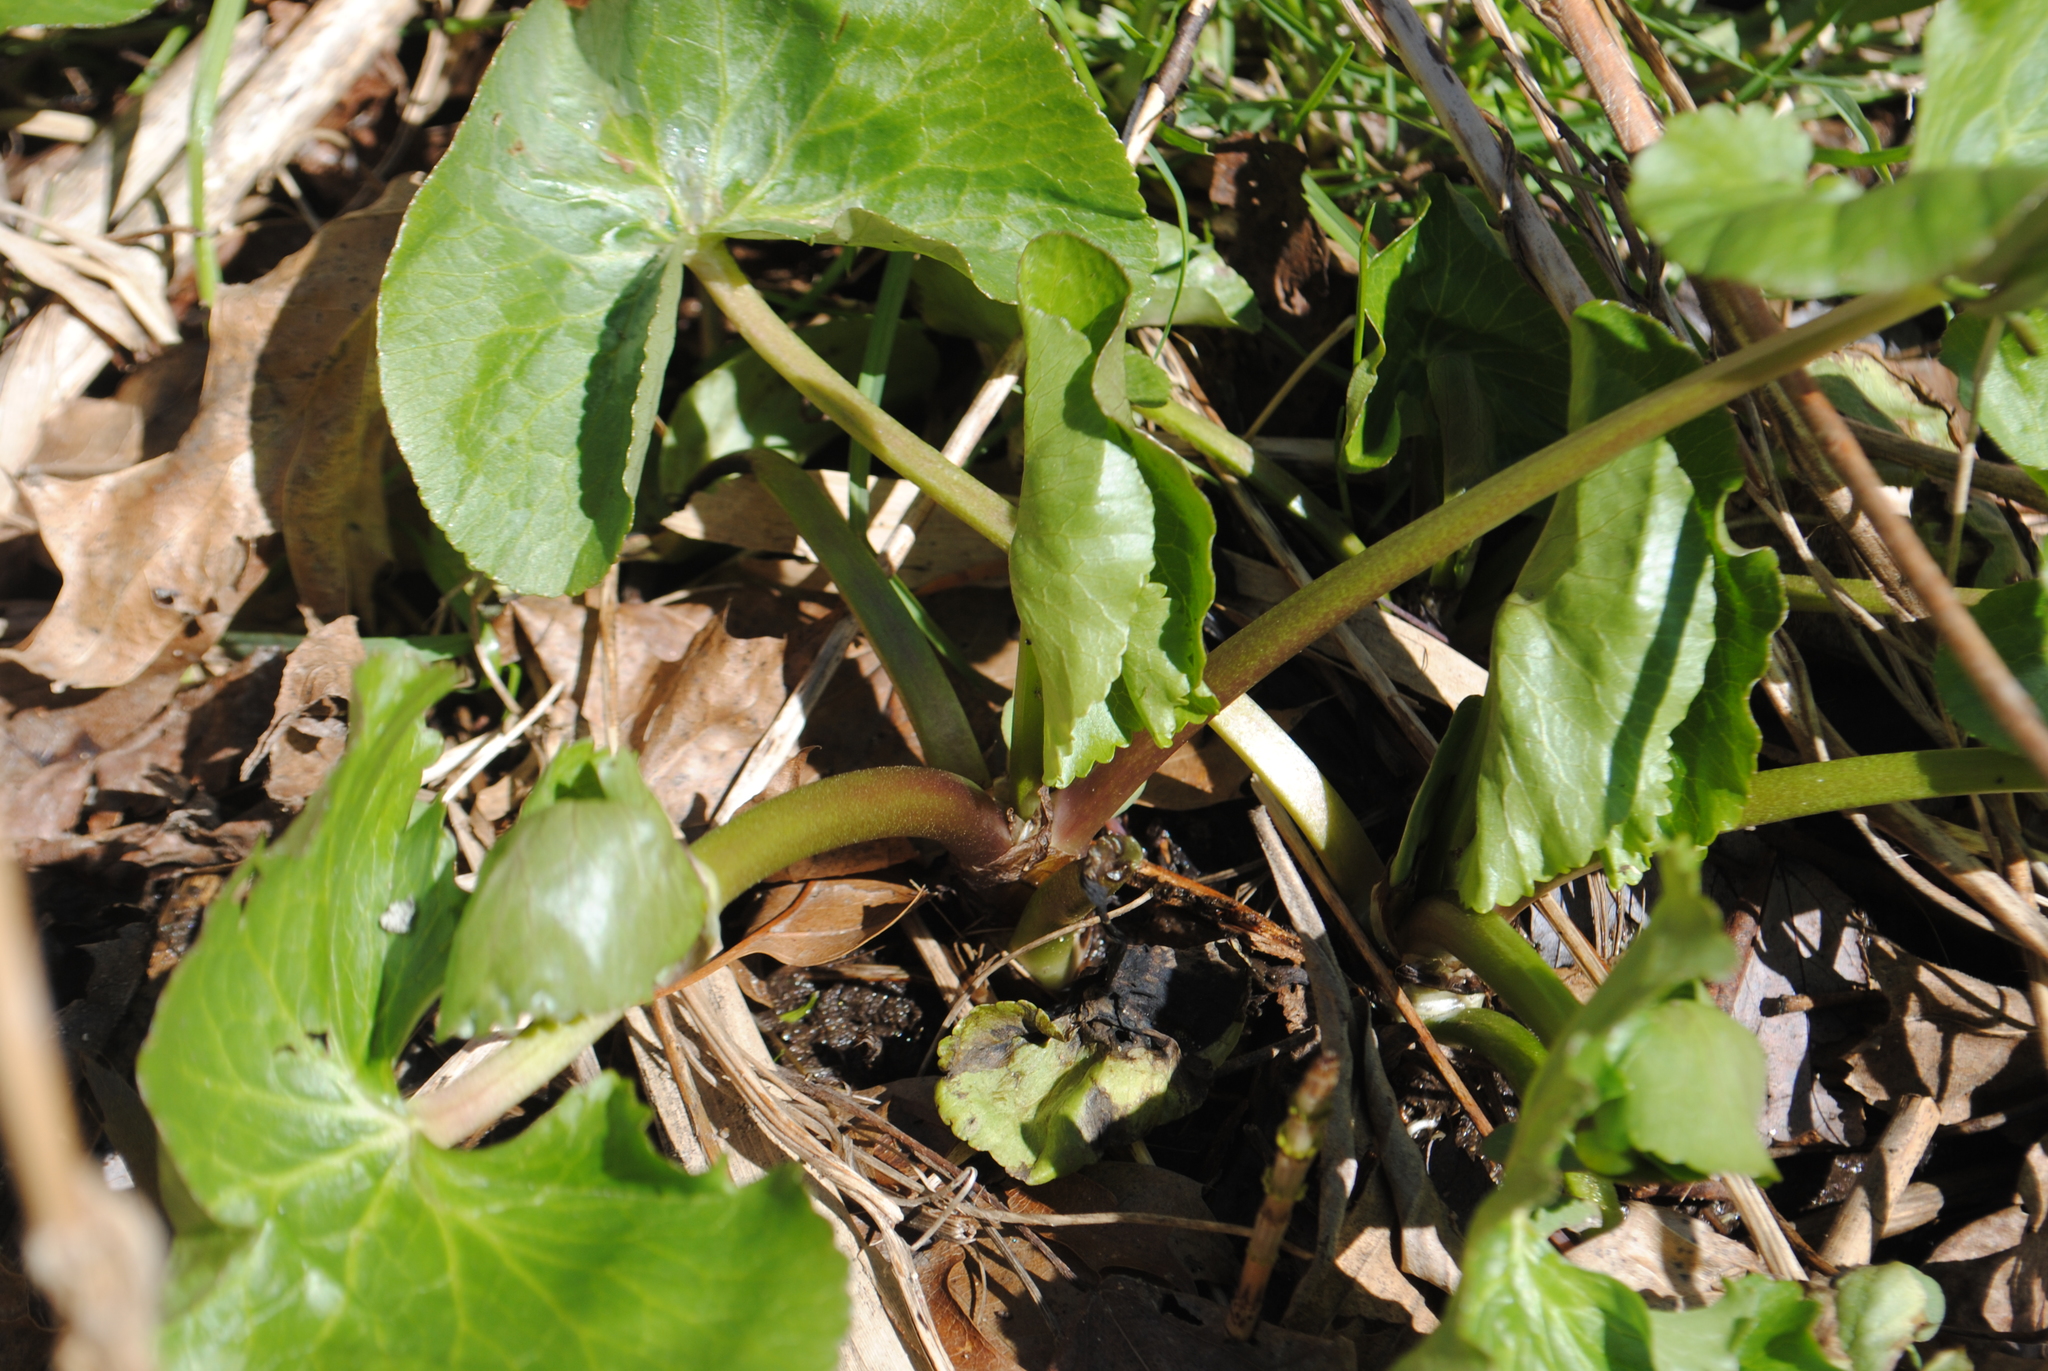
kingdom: Plantae
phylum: Tracheophyta
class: Magnoliopsida
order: Ranunculales
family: Ranunculaceae
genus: Caltha
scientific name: Caltha palustris
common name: Marsh marigold
